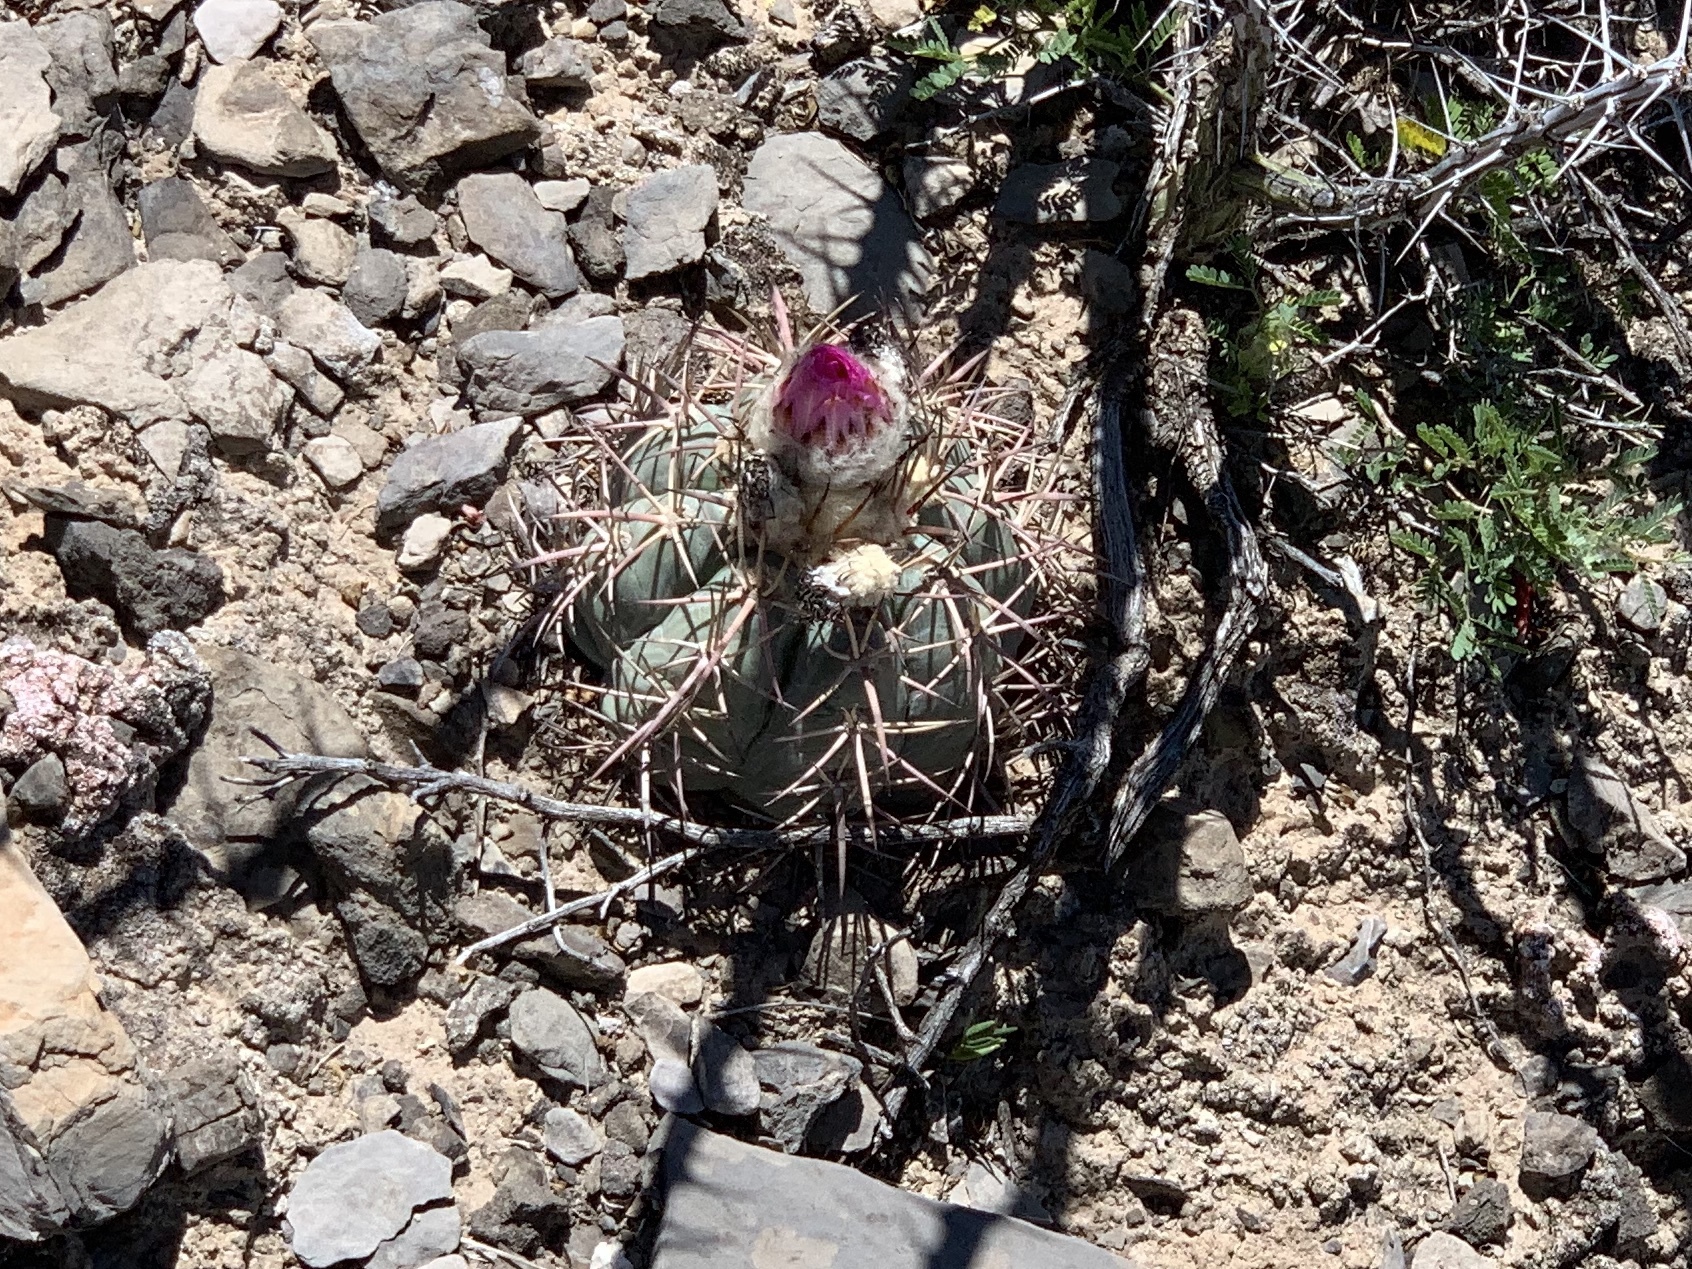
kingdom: Plantae
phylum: Tracheophyta
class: Magnoliopsida
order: Caryophyllales
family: Cactaceae
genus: Echinocactus
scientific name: Echinocactus horizonthalonius
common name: Devilshead
